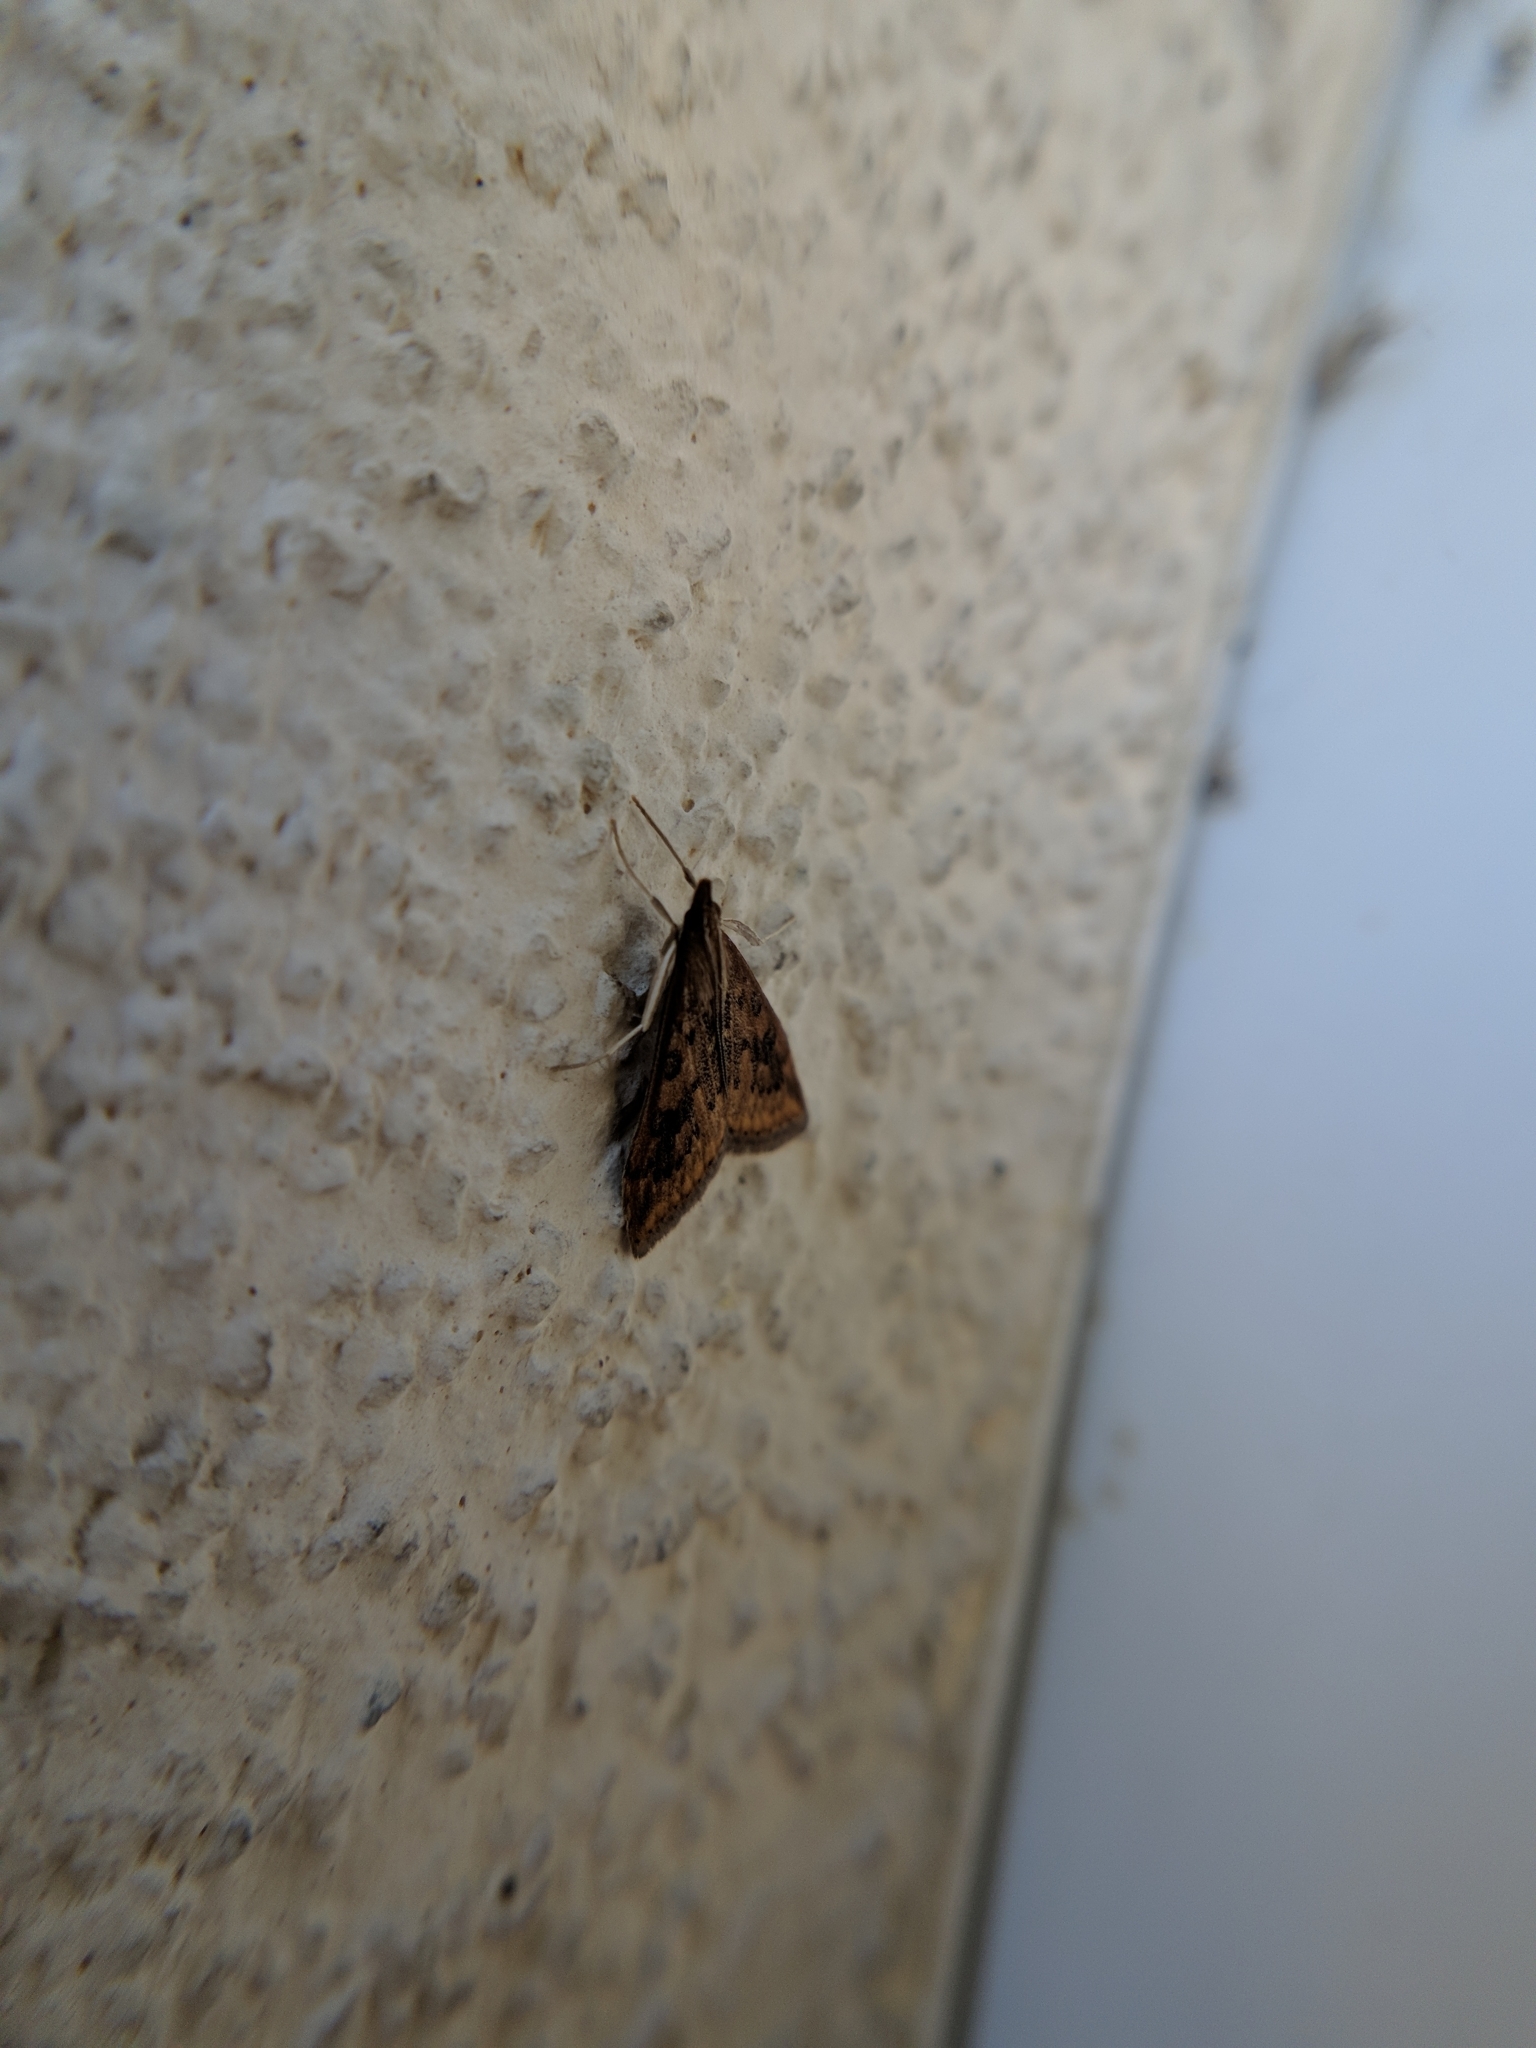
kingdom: Animalia
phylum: Arthropoda
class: Insecta
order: Lepidoptera
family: Crambidae
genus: Udea
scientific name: Udea ferrugalis
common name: Rusty dot
